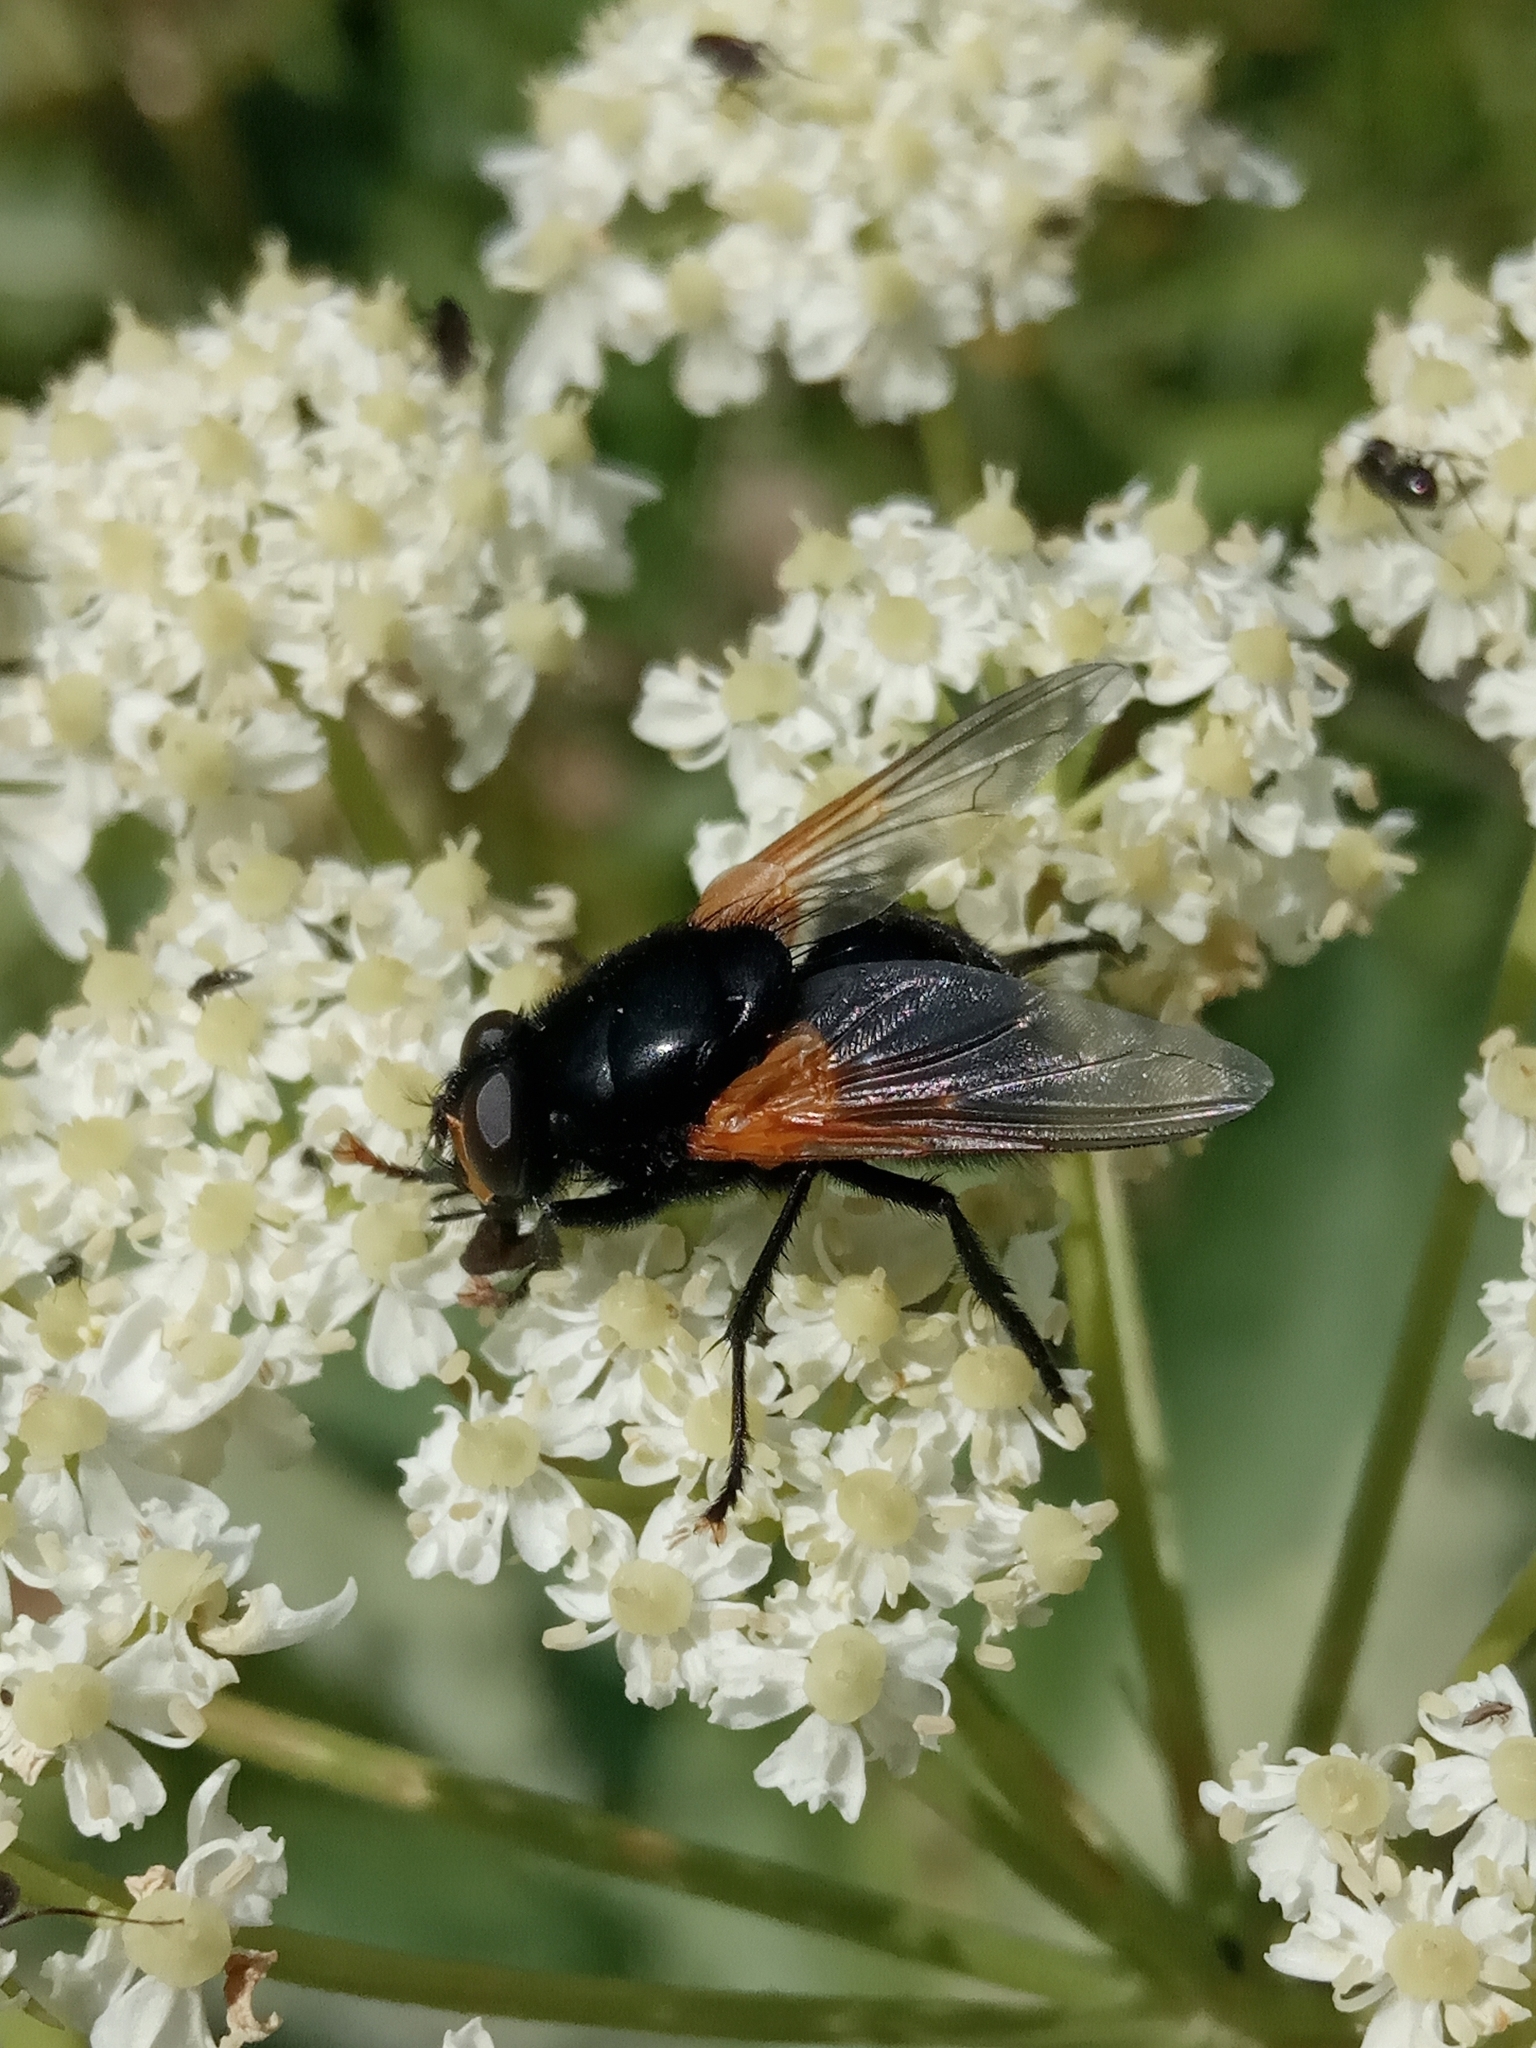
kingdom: Animalia
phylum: Arthropoda
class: Insecta
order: Diptera
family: Muscidae
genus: Mesembrina
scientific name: Mesembrina meridiana
